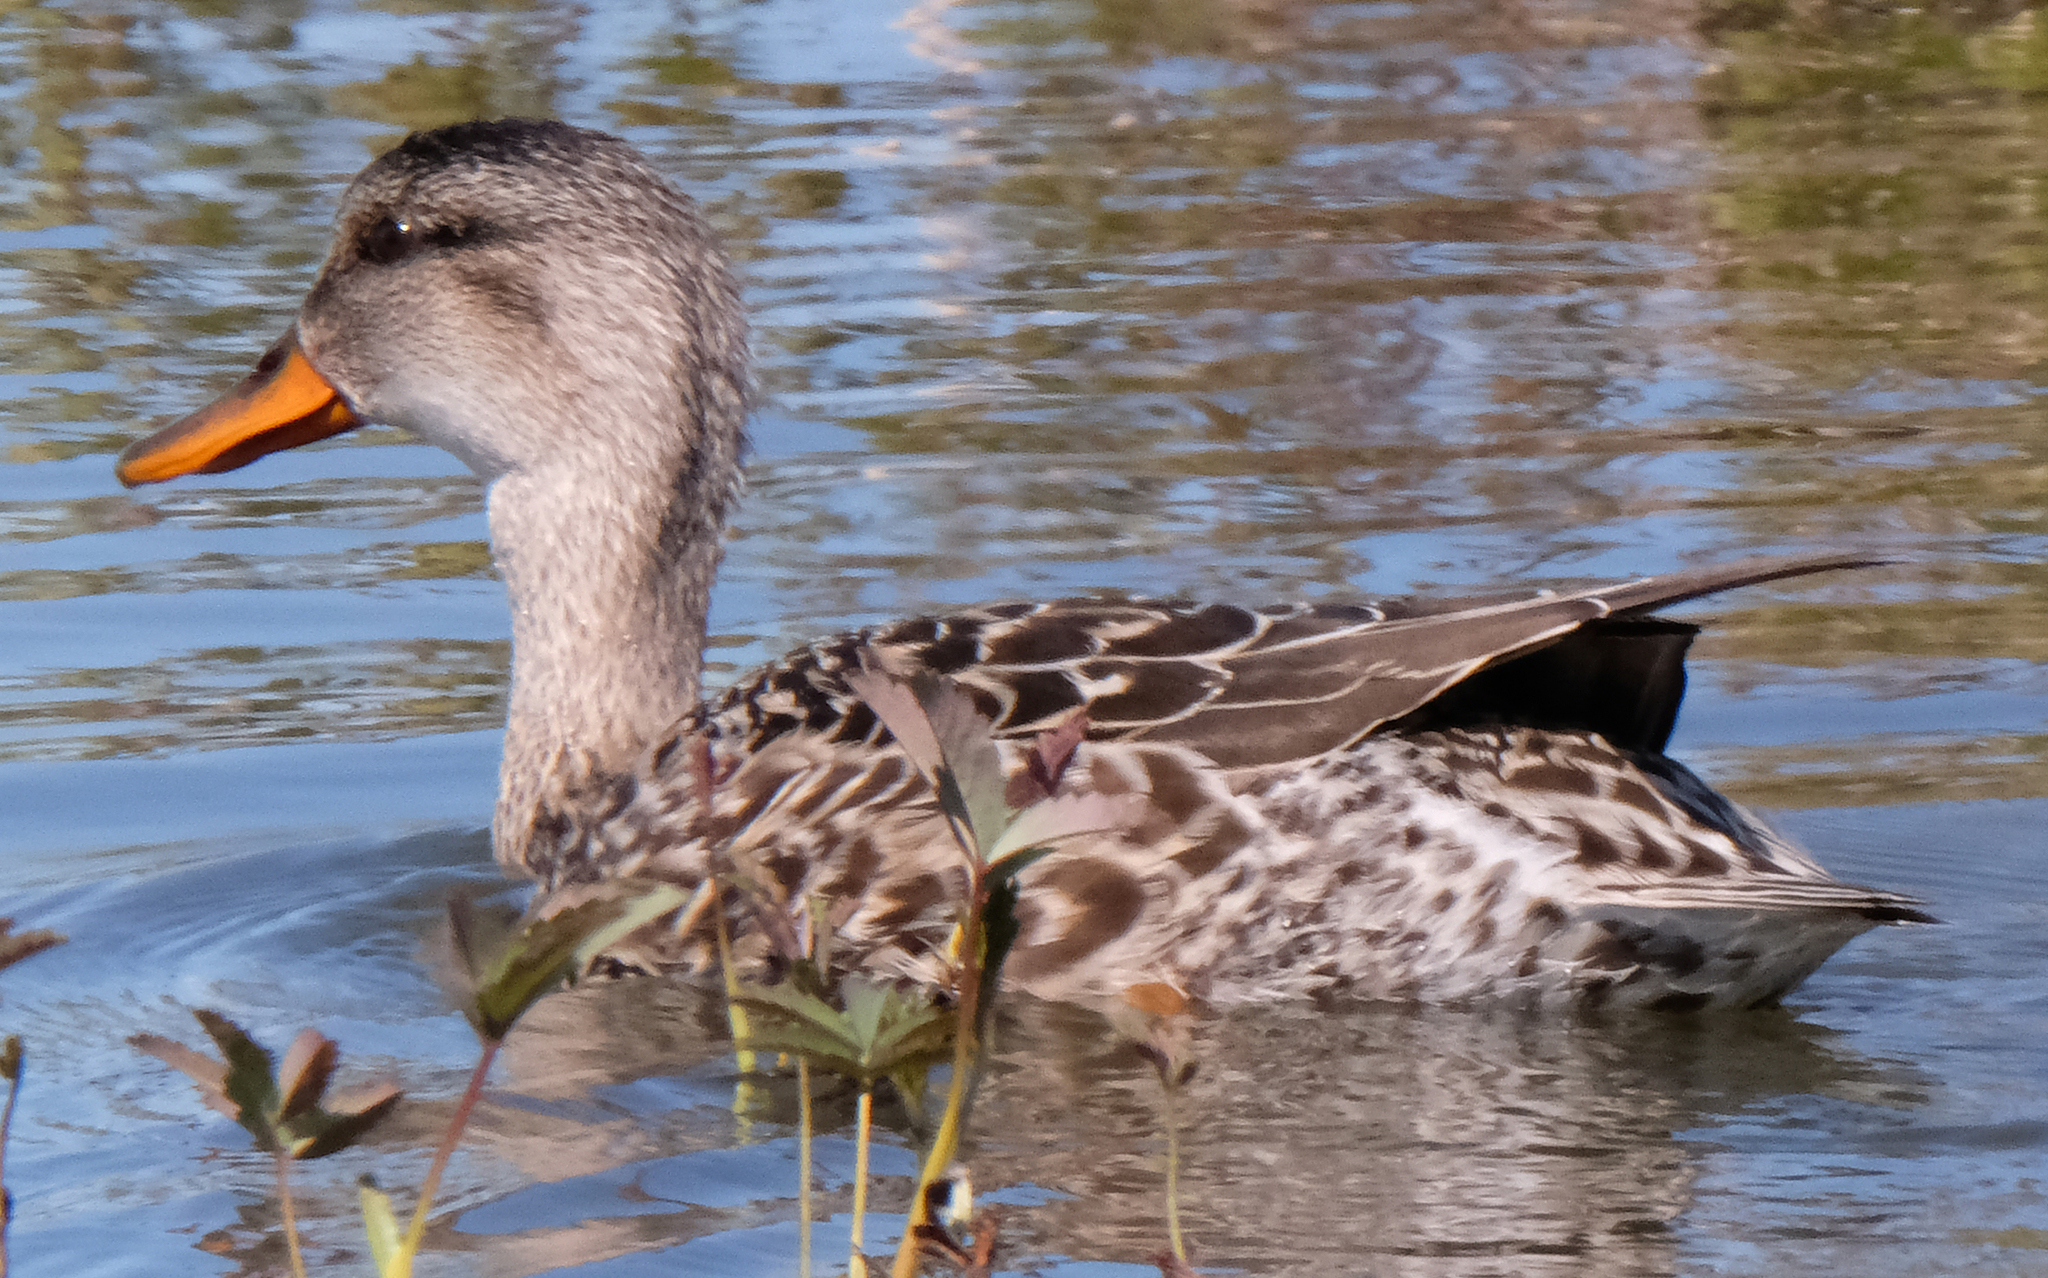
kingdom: Animalia
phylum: Chordata
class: Aves
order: Anseriformes
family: Anatidae
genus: Mareca
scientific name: Mareca strepera
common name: Gadwall
